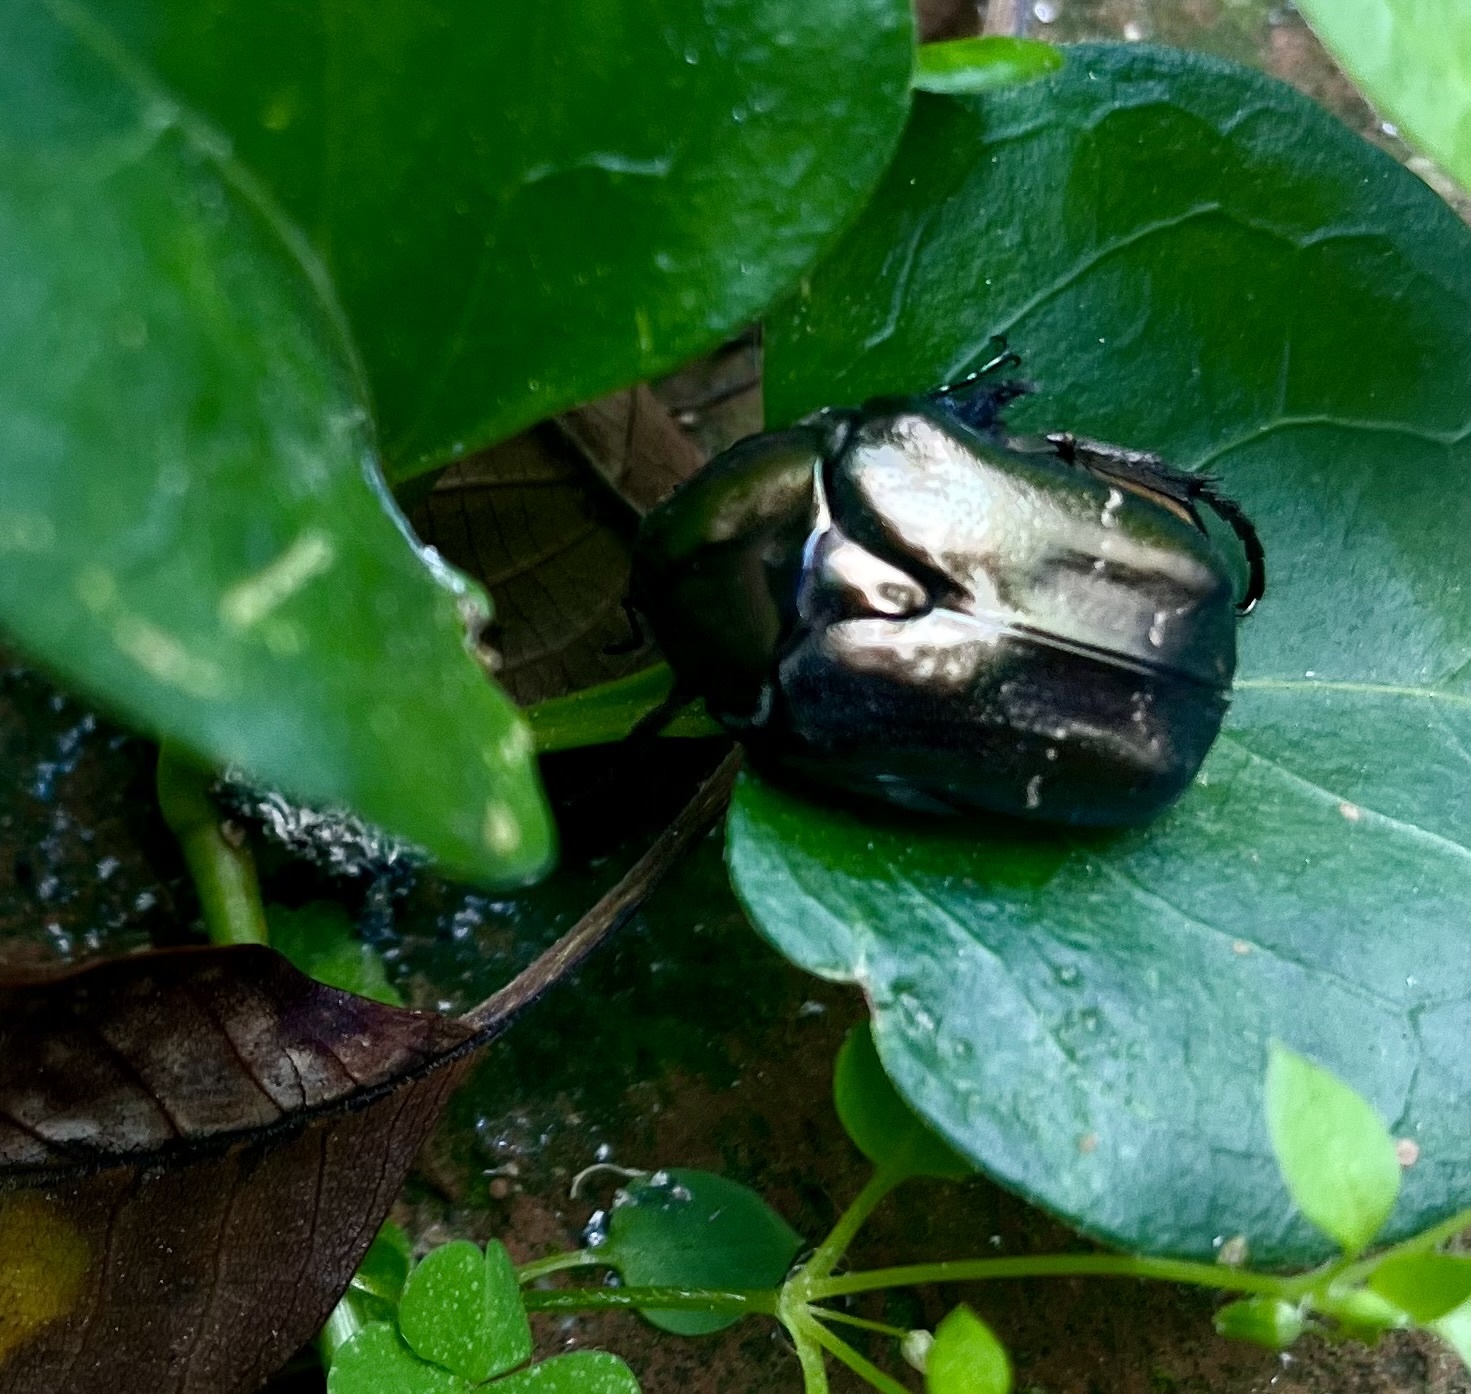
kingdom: Animalia
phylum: Arthropoda
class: Insecta
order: Coleoptera
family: Scarabaeidae
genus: Protaetia
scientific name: Protaetia cuprea
